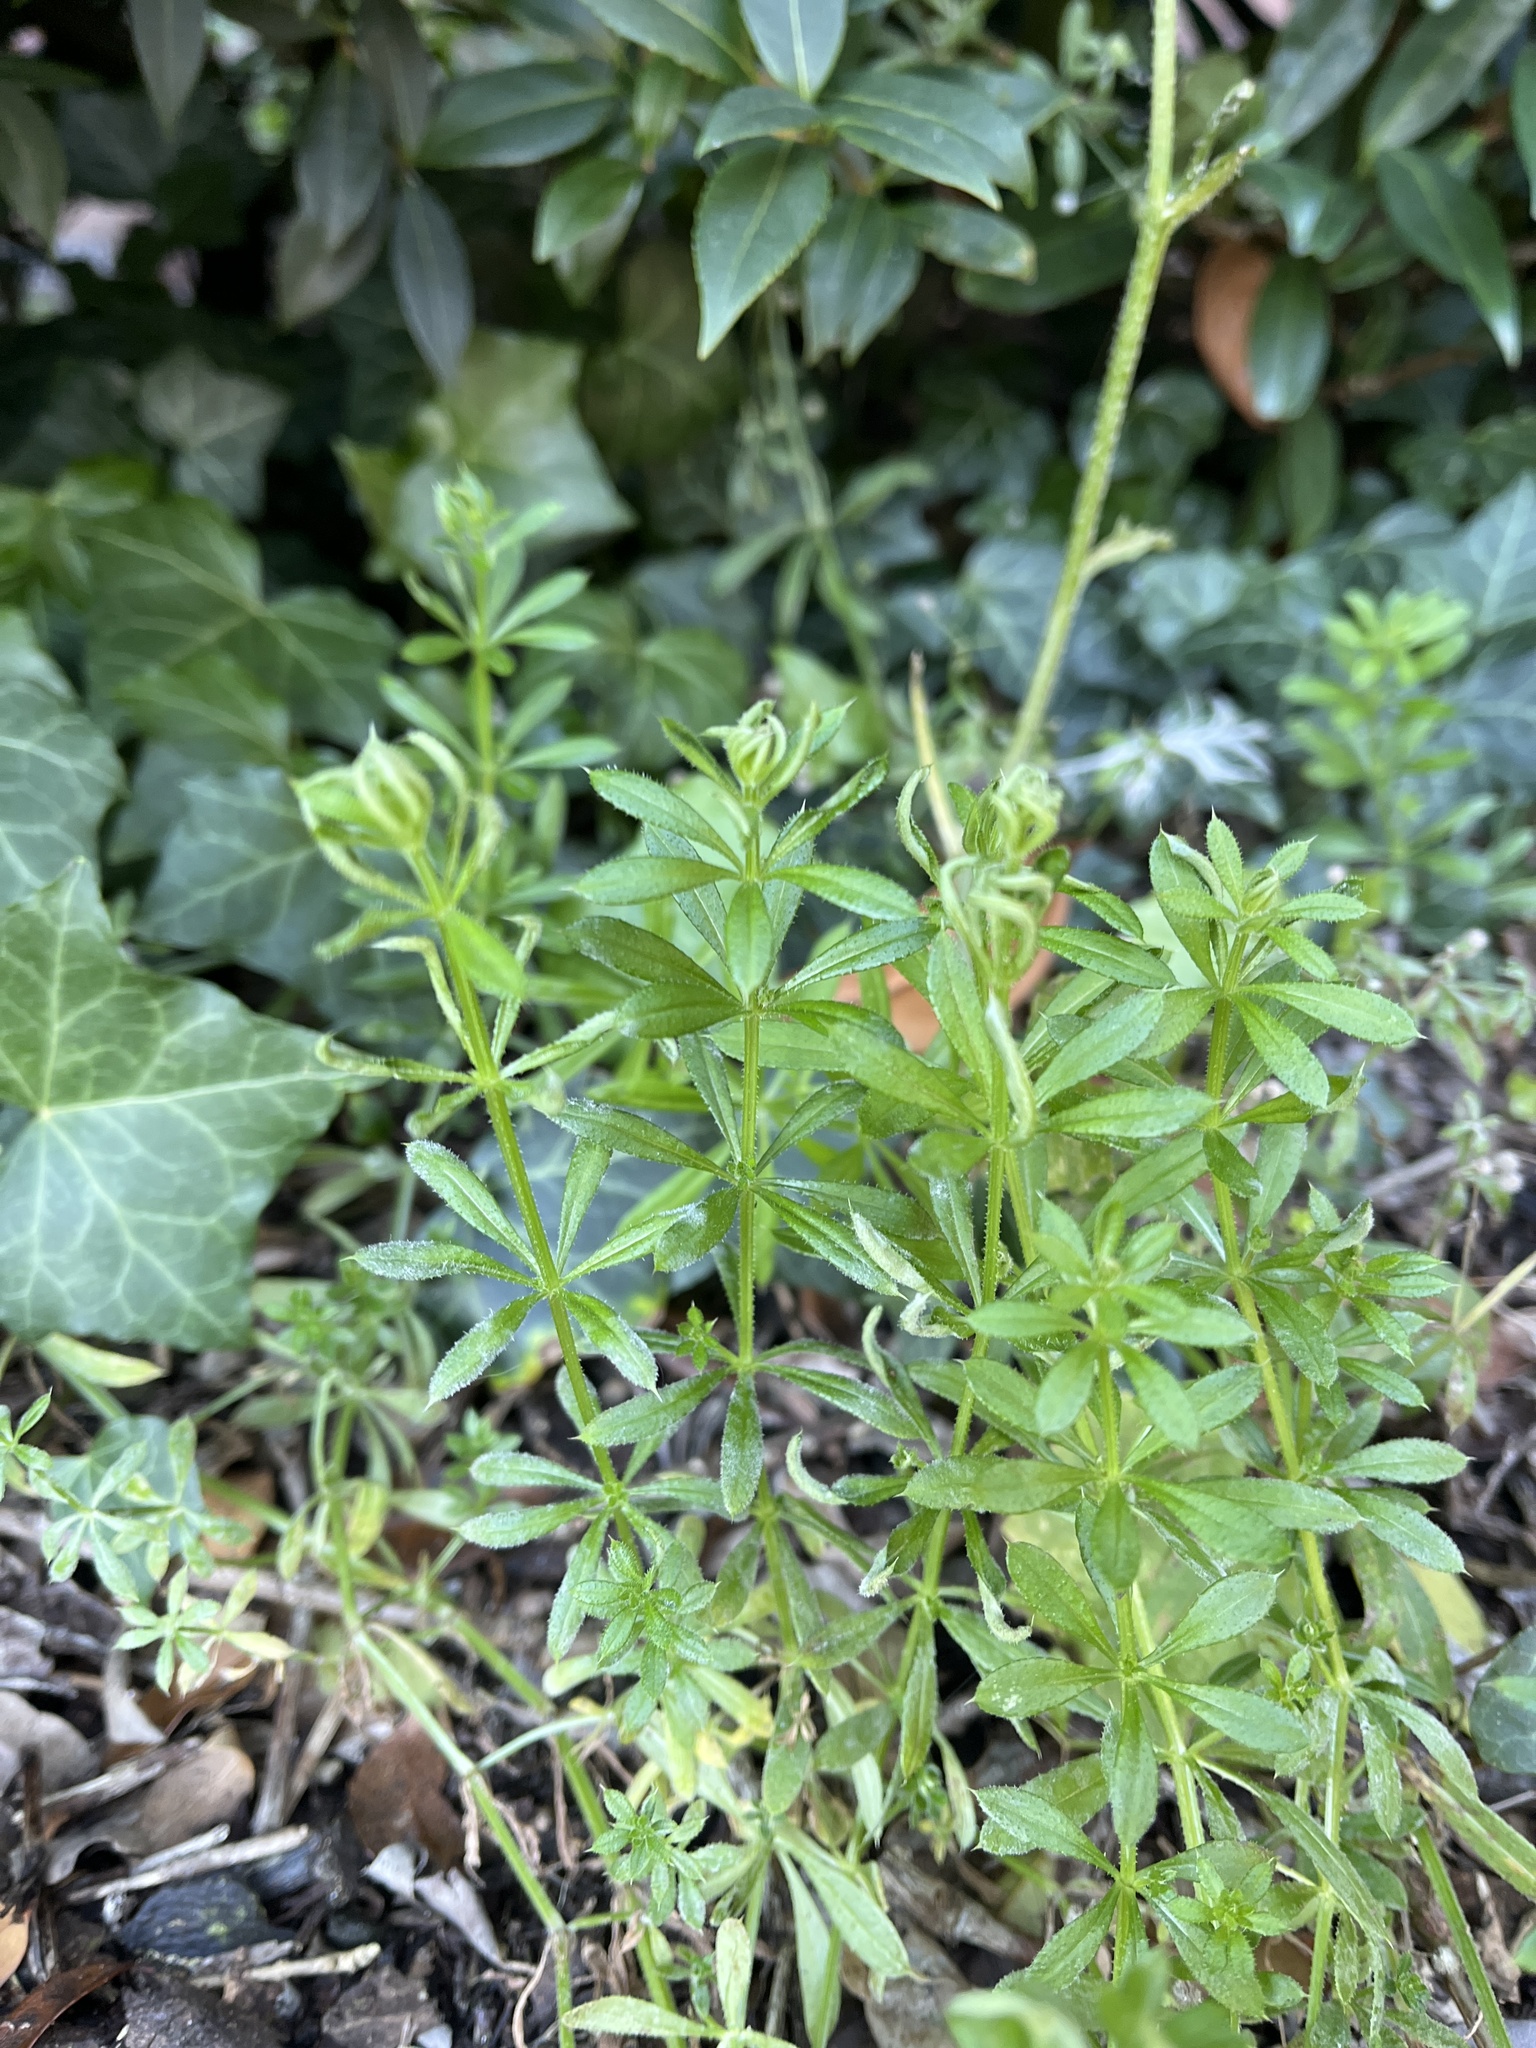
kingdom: Animalia
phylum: Arthropoda
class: Arachnida
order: Trombidiformes
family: Eriophyidae
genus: Cecidophyes
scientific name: Cecidophyes rouhollahi
